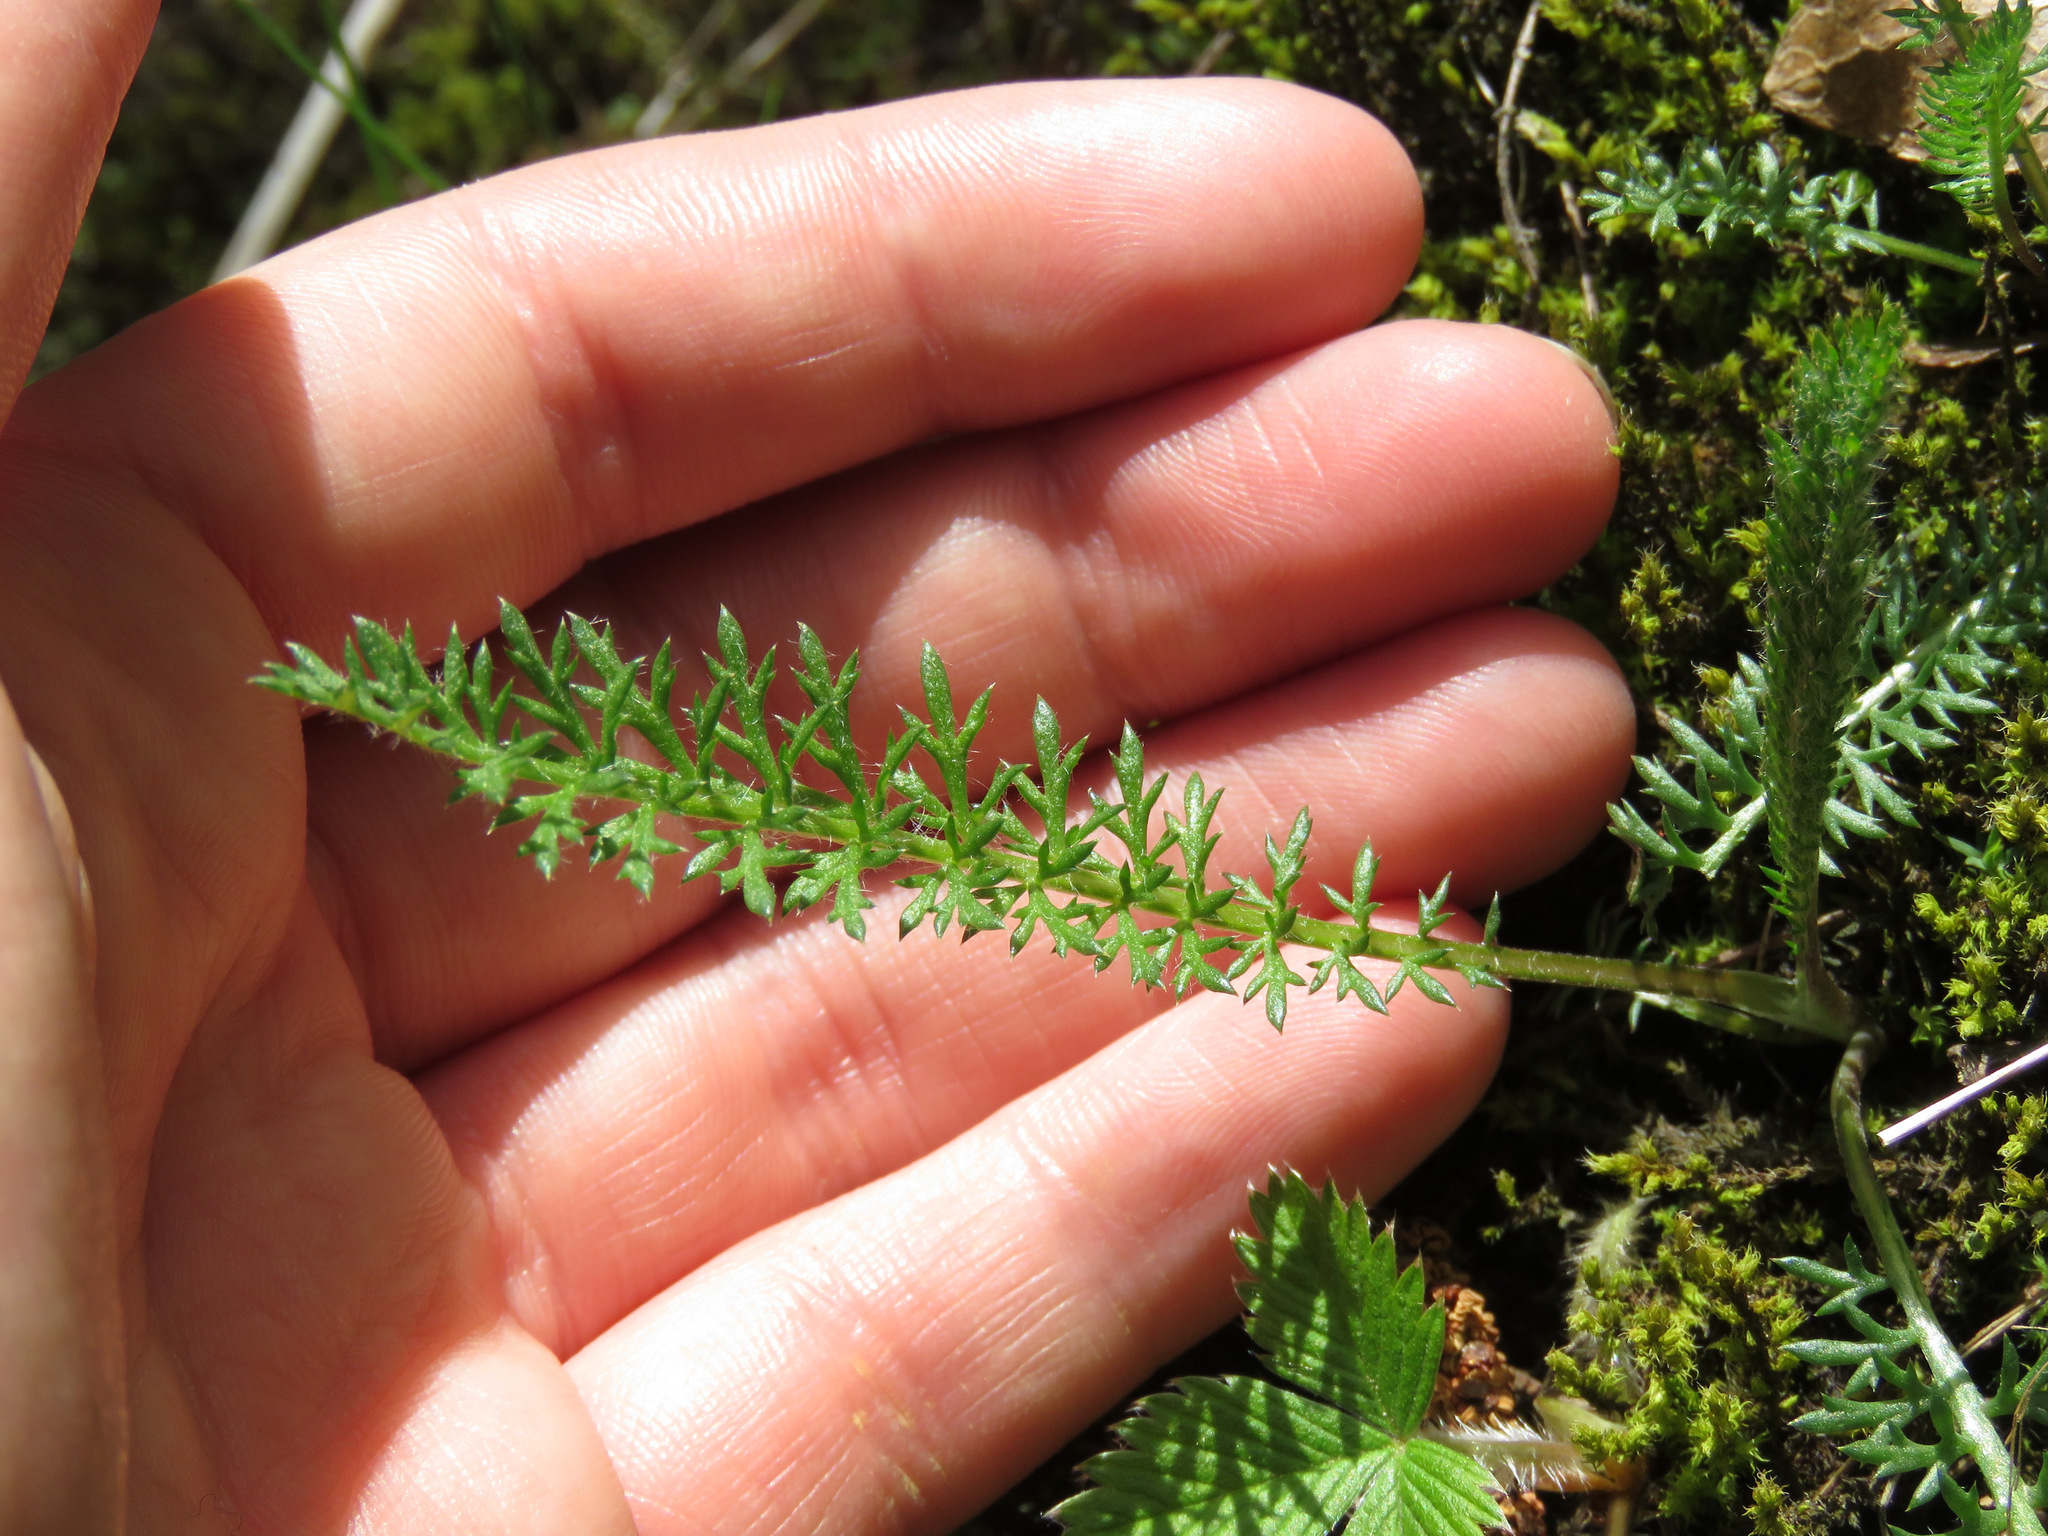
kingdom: Plantae
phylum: Tracheophyta
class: Magnoliopsida
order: Asterales
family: Asteraceae
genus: Achillea
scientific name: Achillea millefolium
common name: Yarrow
